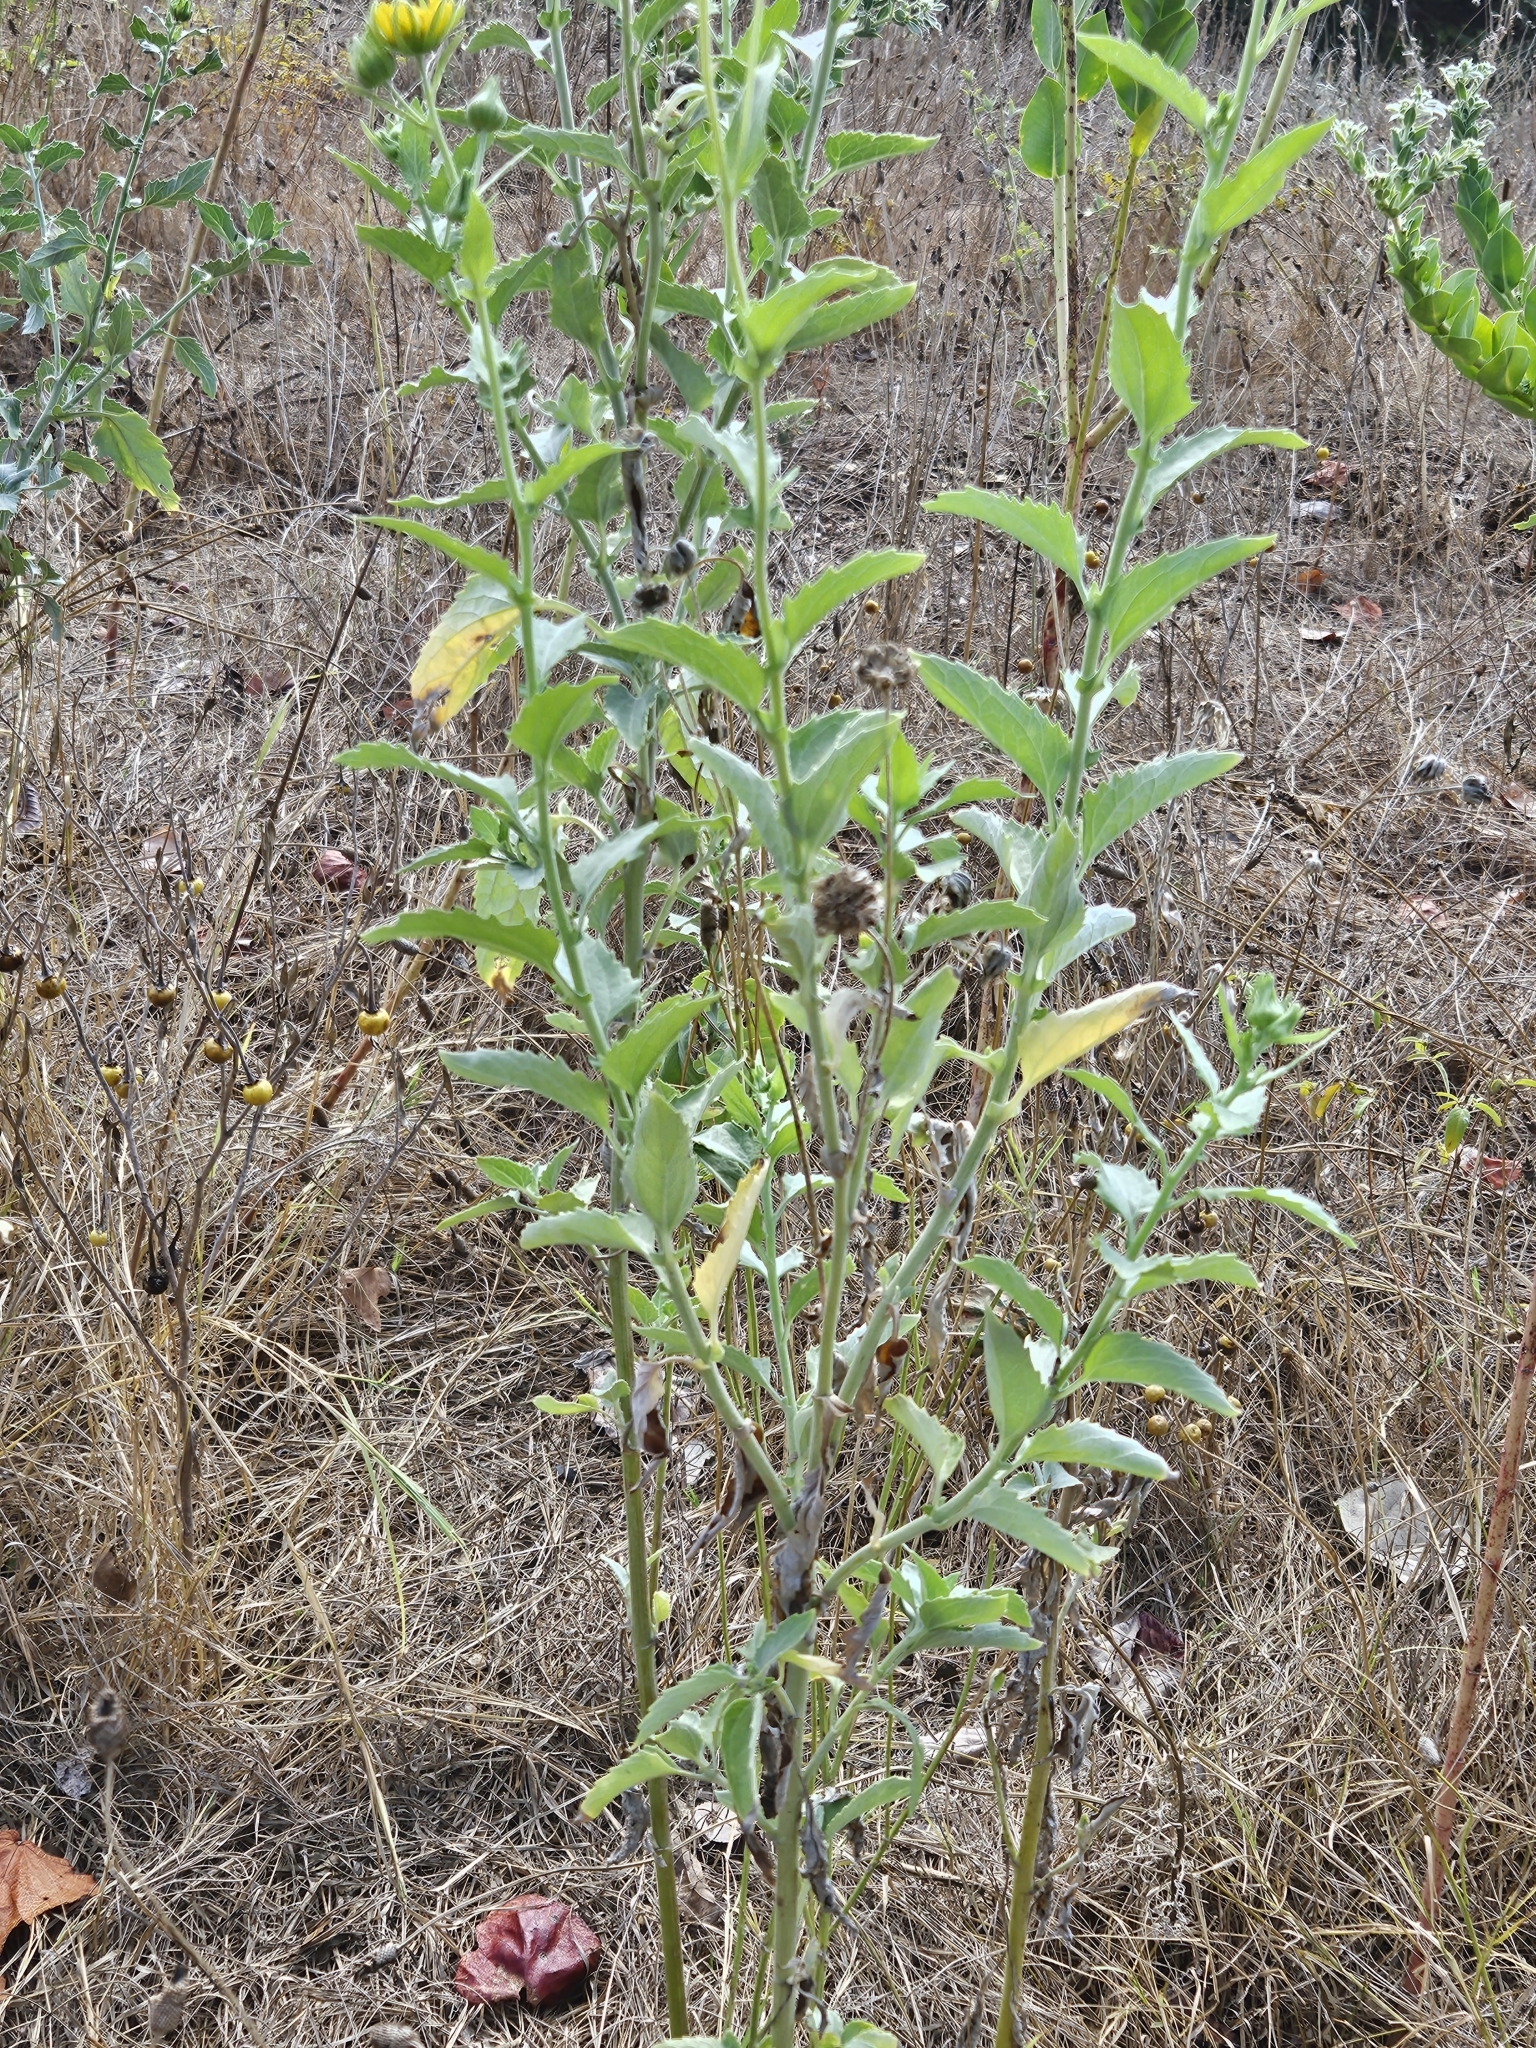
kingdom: Plantae
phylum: Tracheophyta
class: Magnoliopsida
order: Asterales
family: Asteraceae
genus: Verbesina
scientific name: Verbesina encelioides
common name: Golden crownbeard
